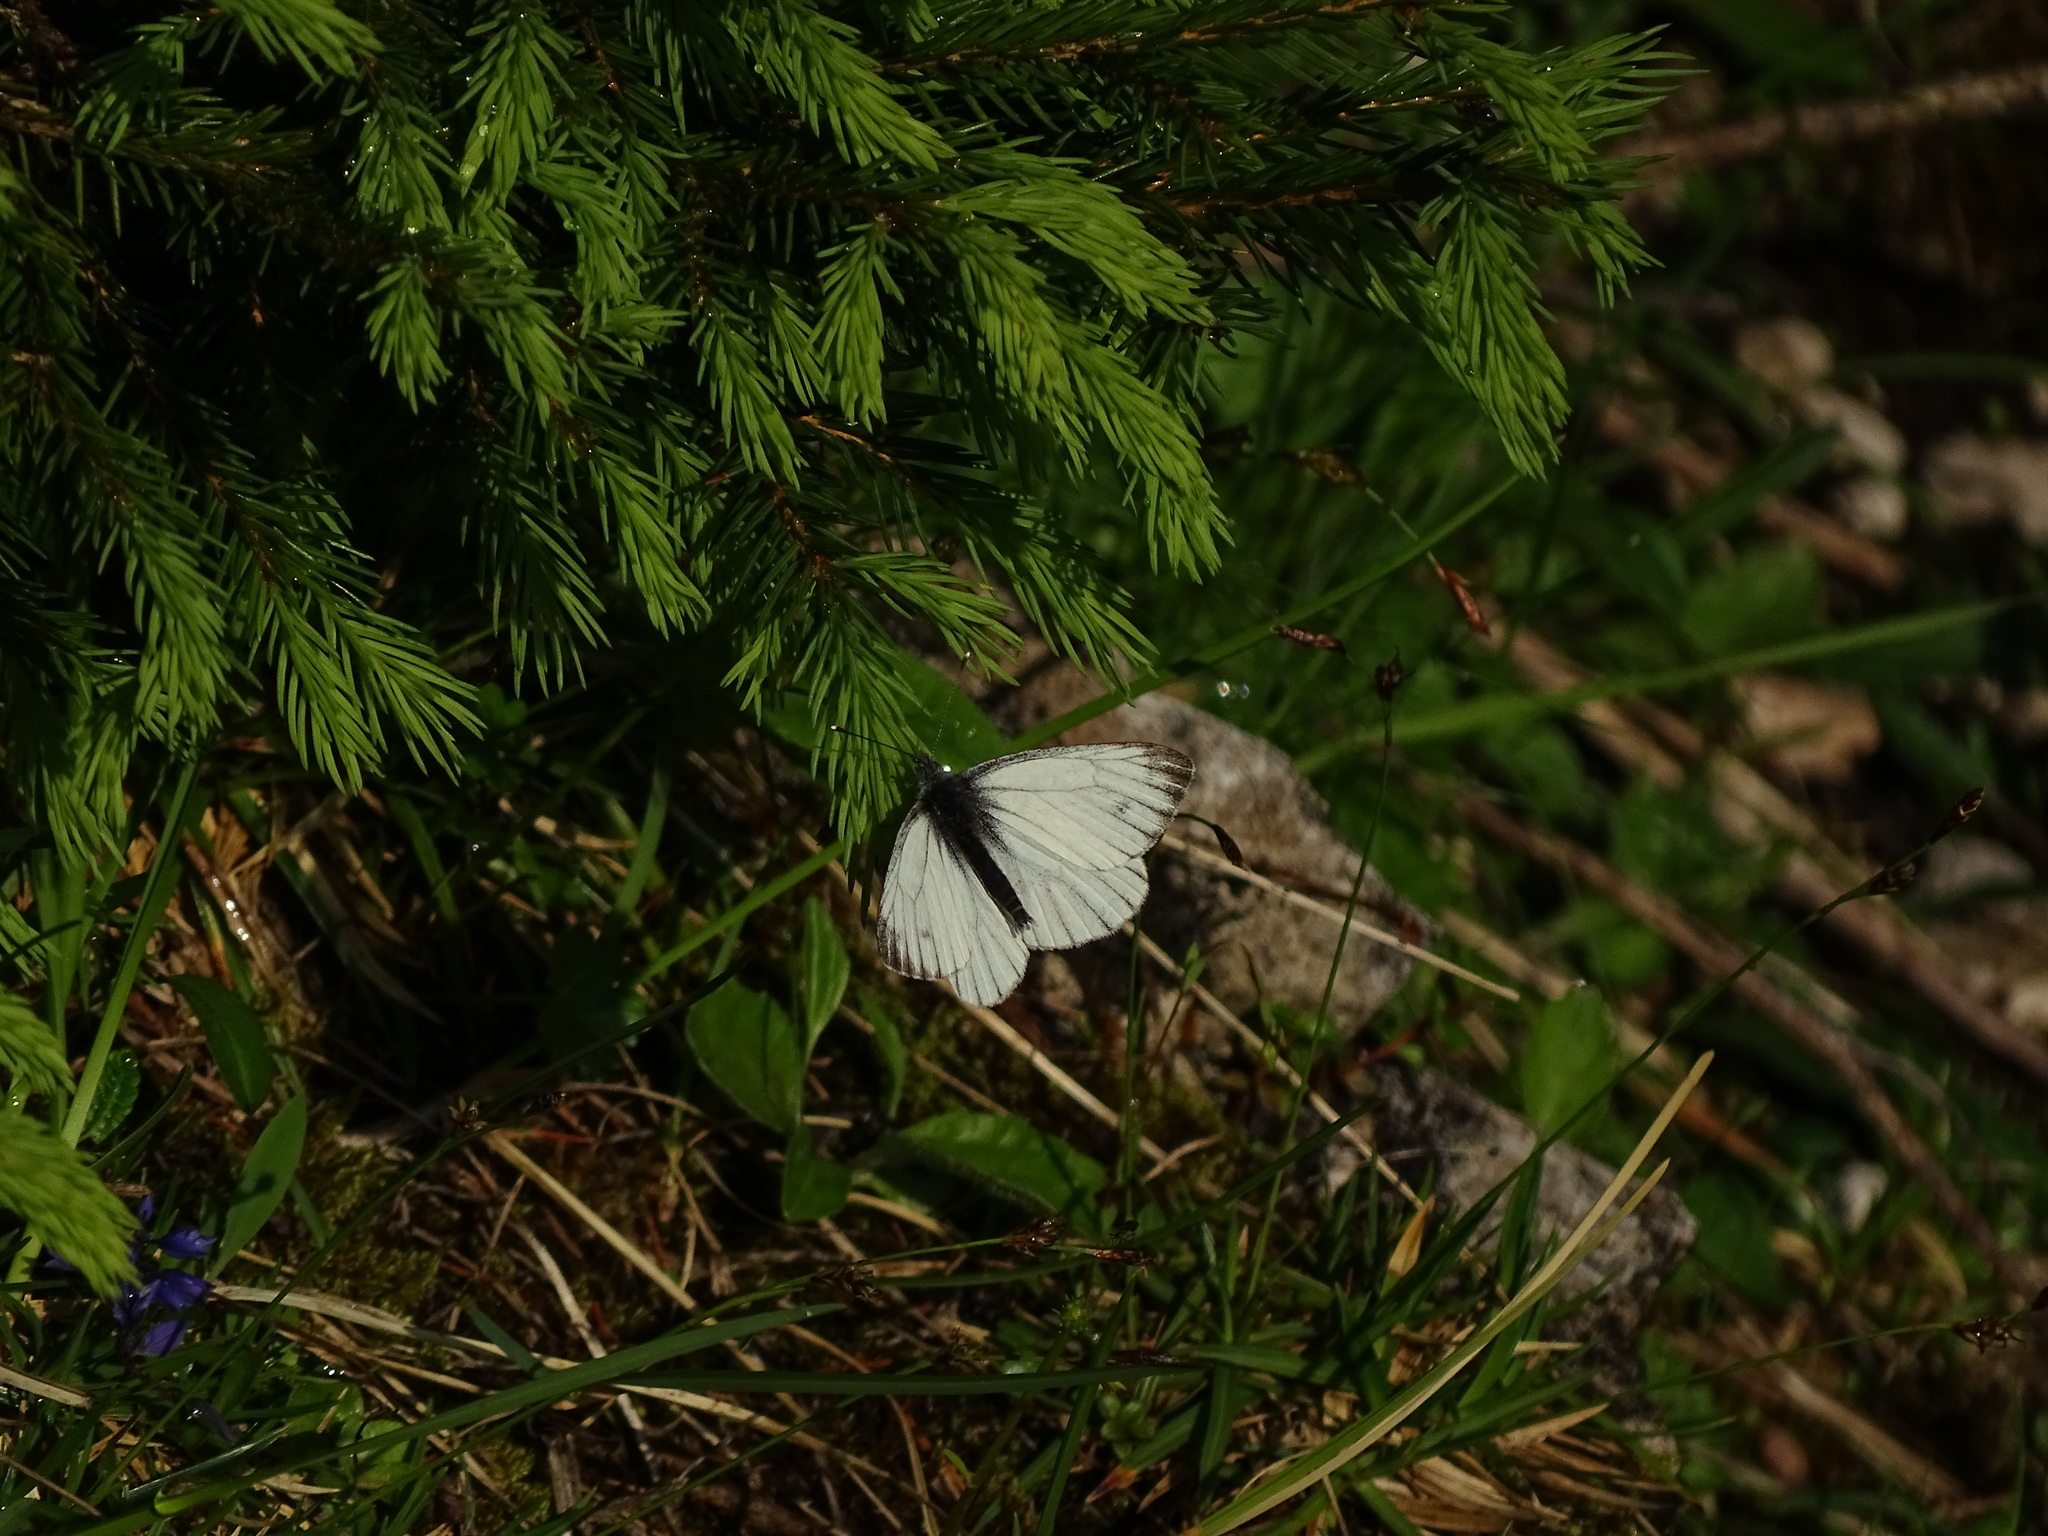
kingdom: Animalia
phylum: Arthropoda
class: Insecta
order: Lepidoptera
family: Pieridae
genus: Pieris
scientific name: Pieris bryoniae
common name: Mountain green-veined white
